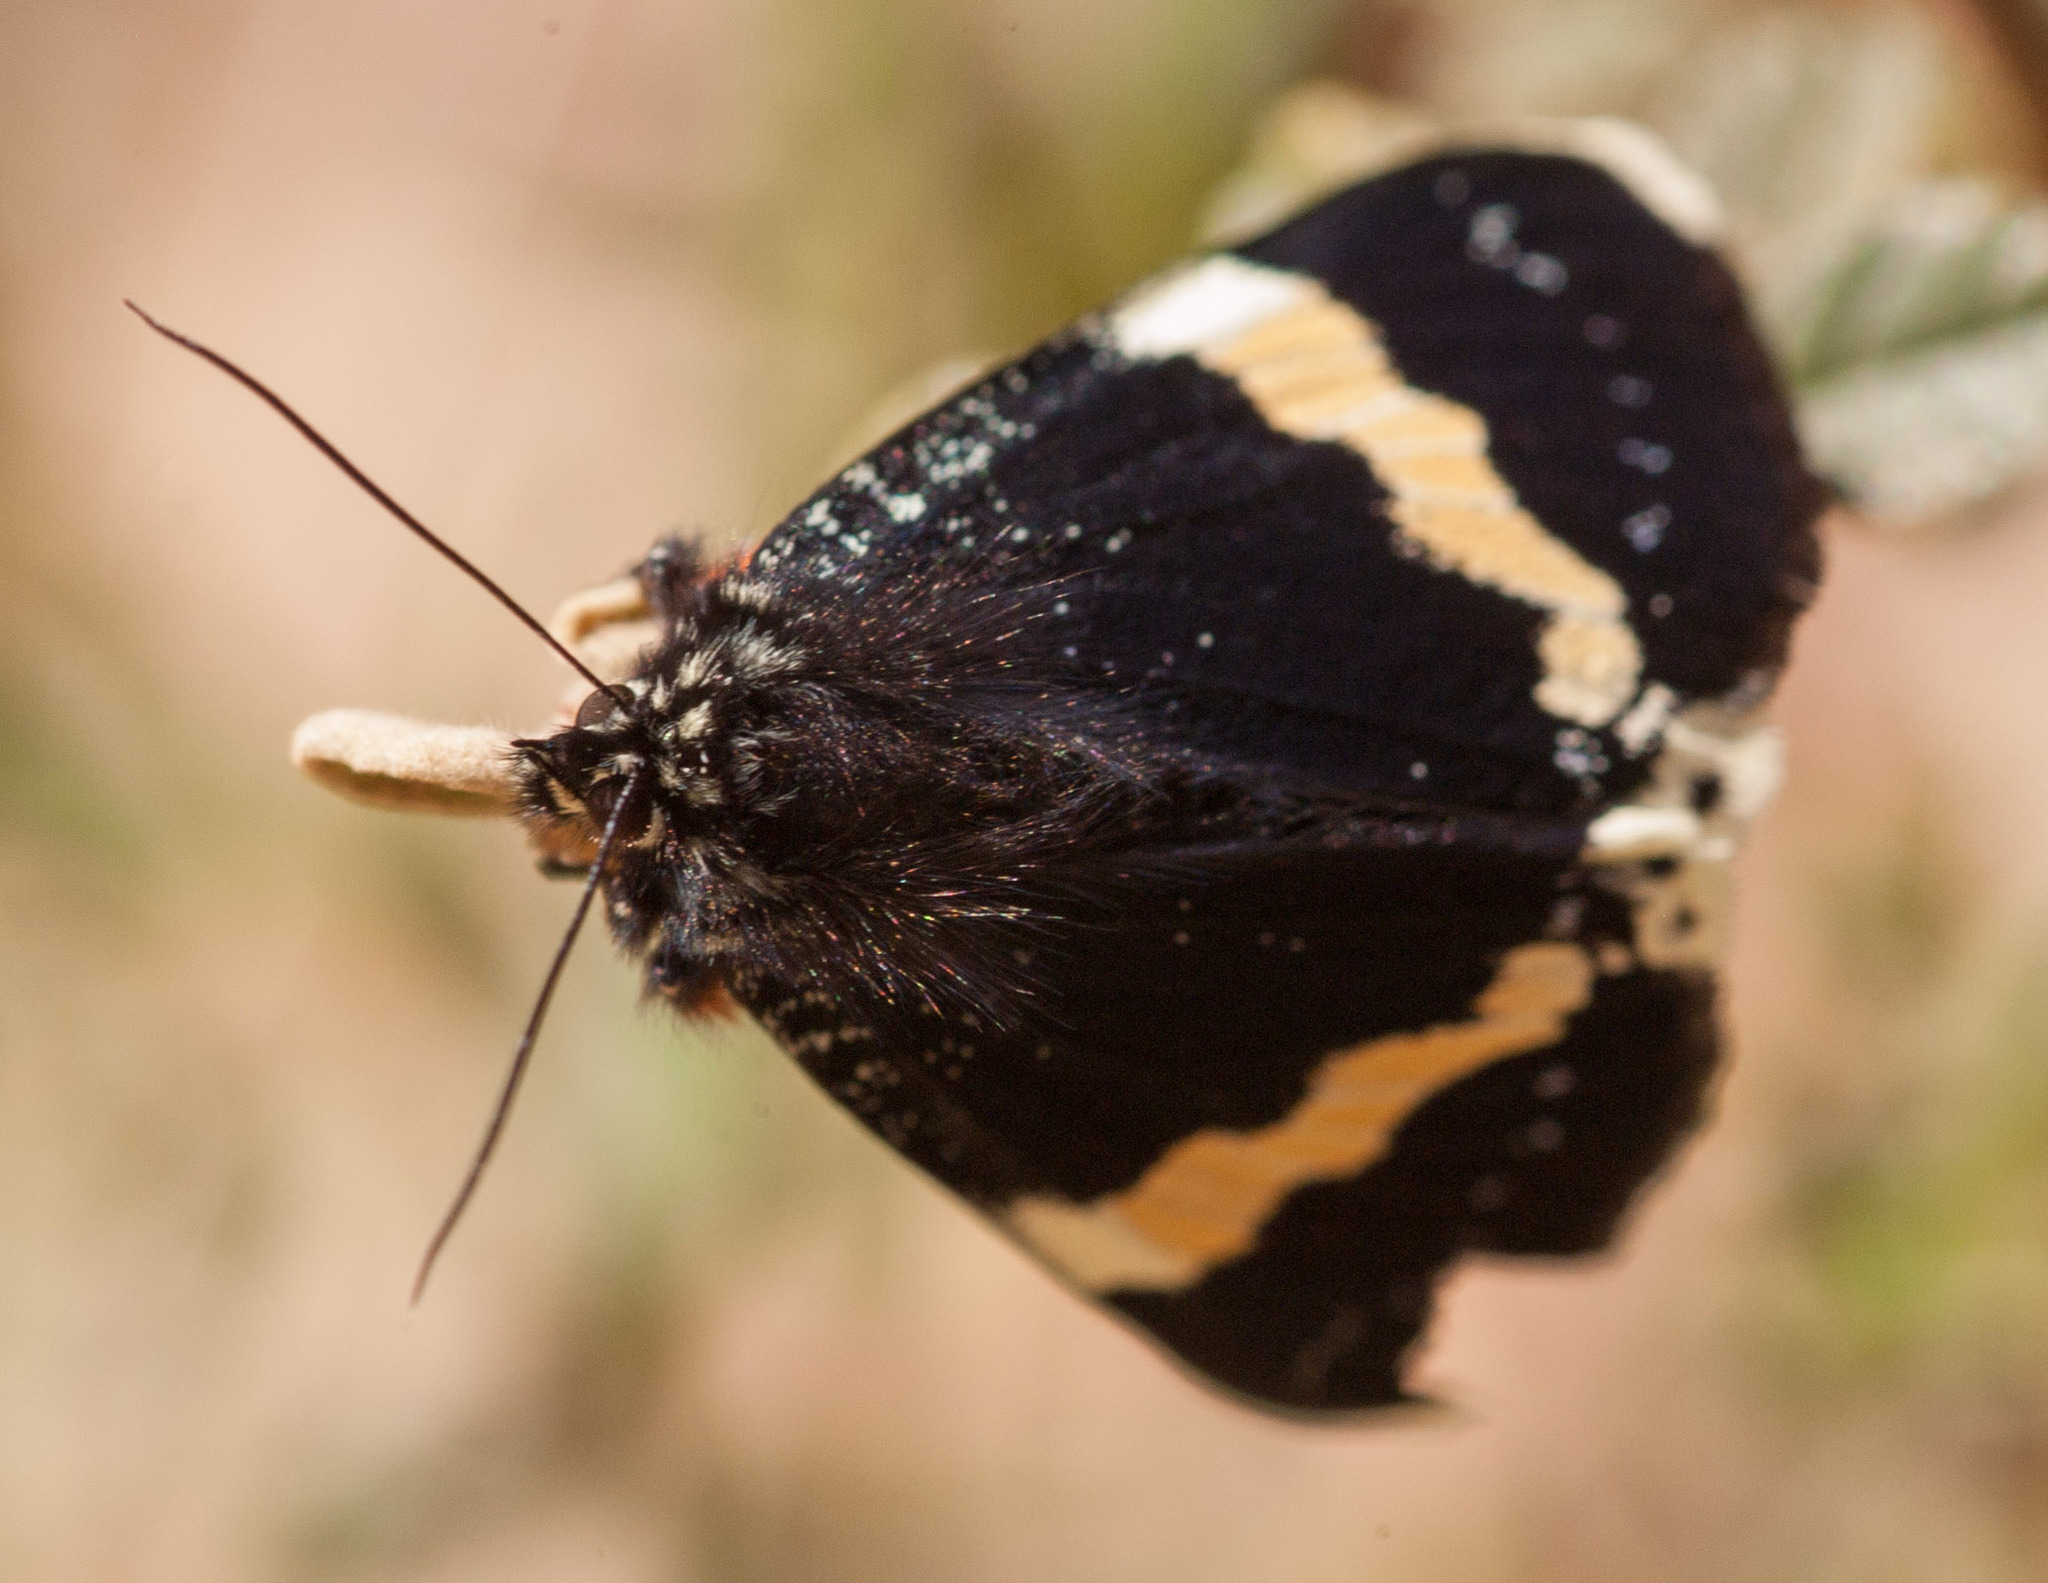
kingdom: Animalia
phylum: Arthropoda
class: Insecta
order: Lepidoptera
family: Noctuidae
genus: Eutrichopidia
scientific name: Eutrichopidia latinus
